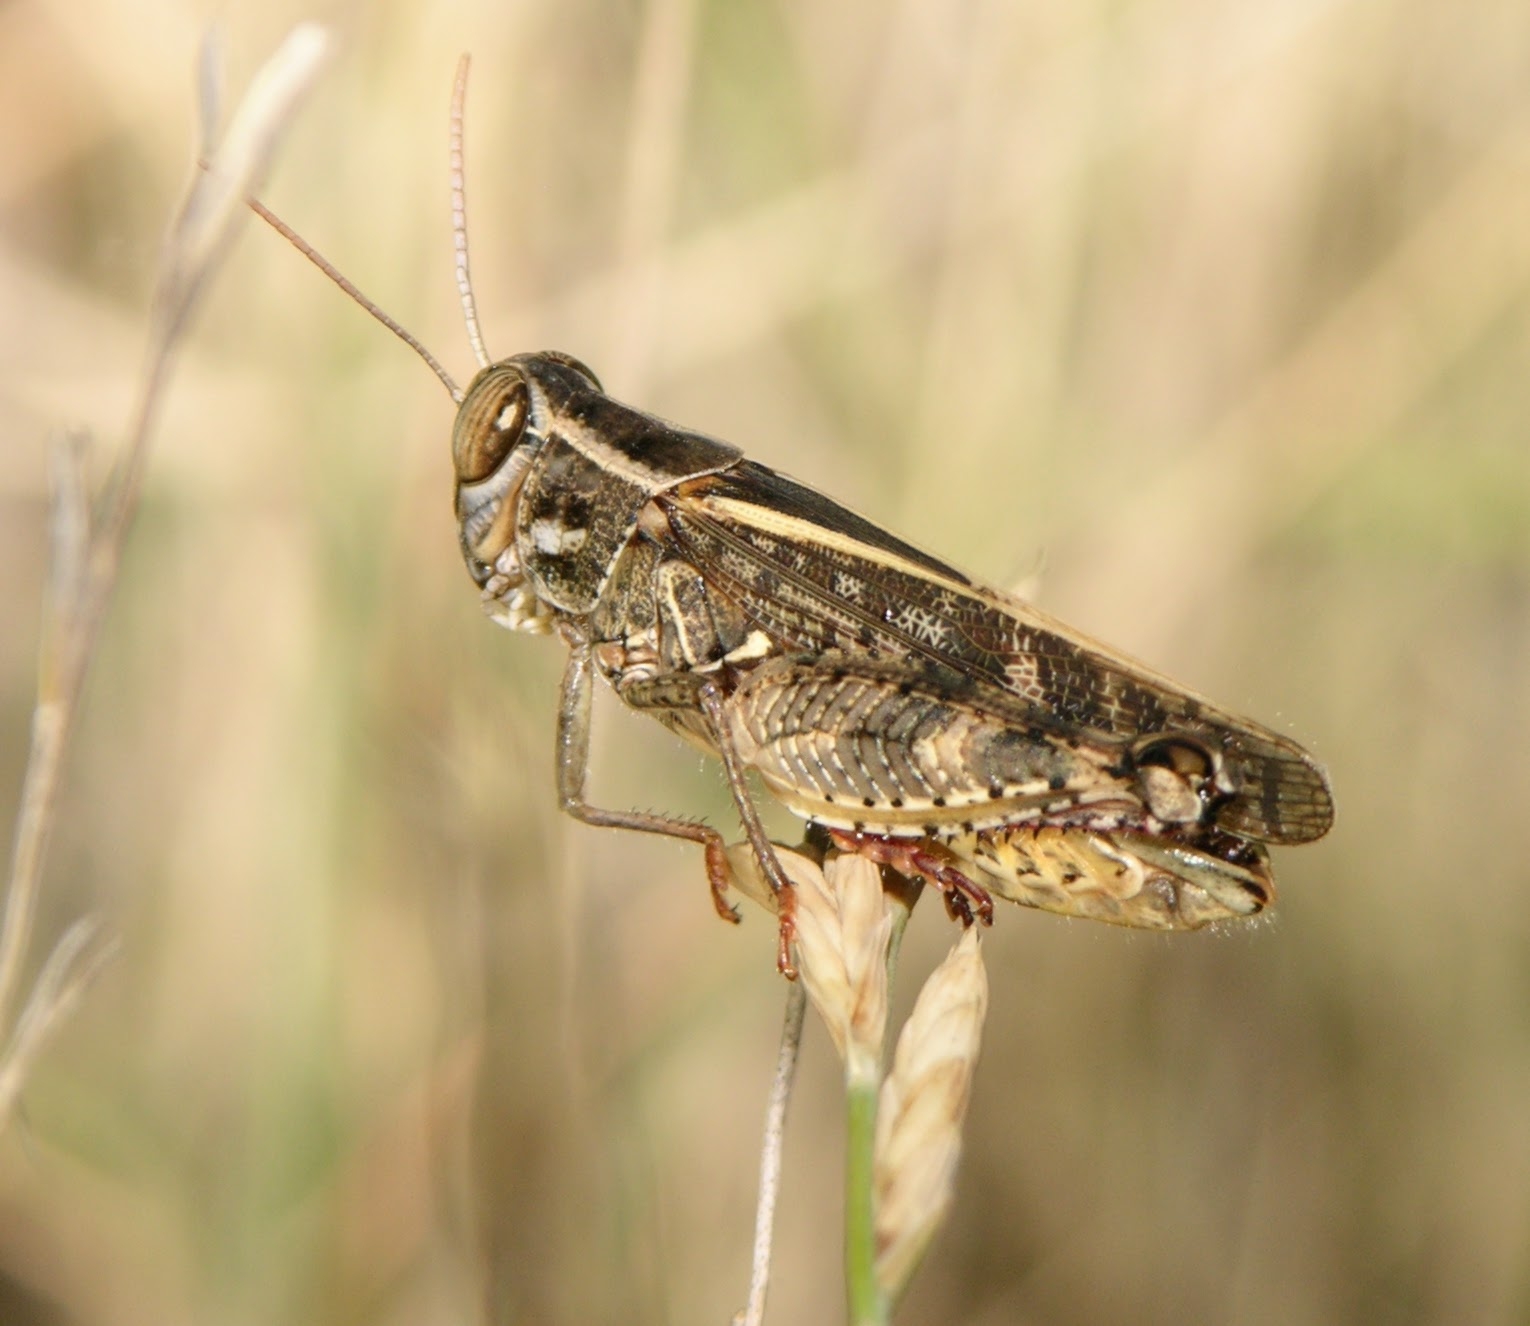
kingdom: Animalia
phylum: Arthropoda
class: Insecta
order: Orthoptera
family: Acrididae
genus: Calliptamus
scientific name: Calliptamus italicus
